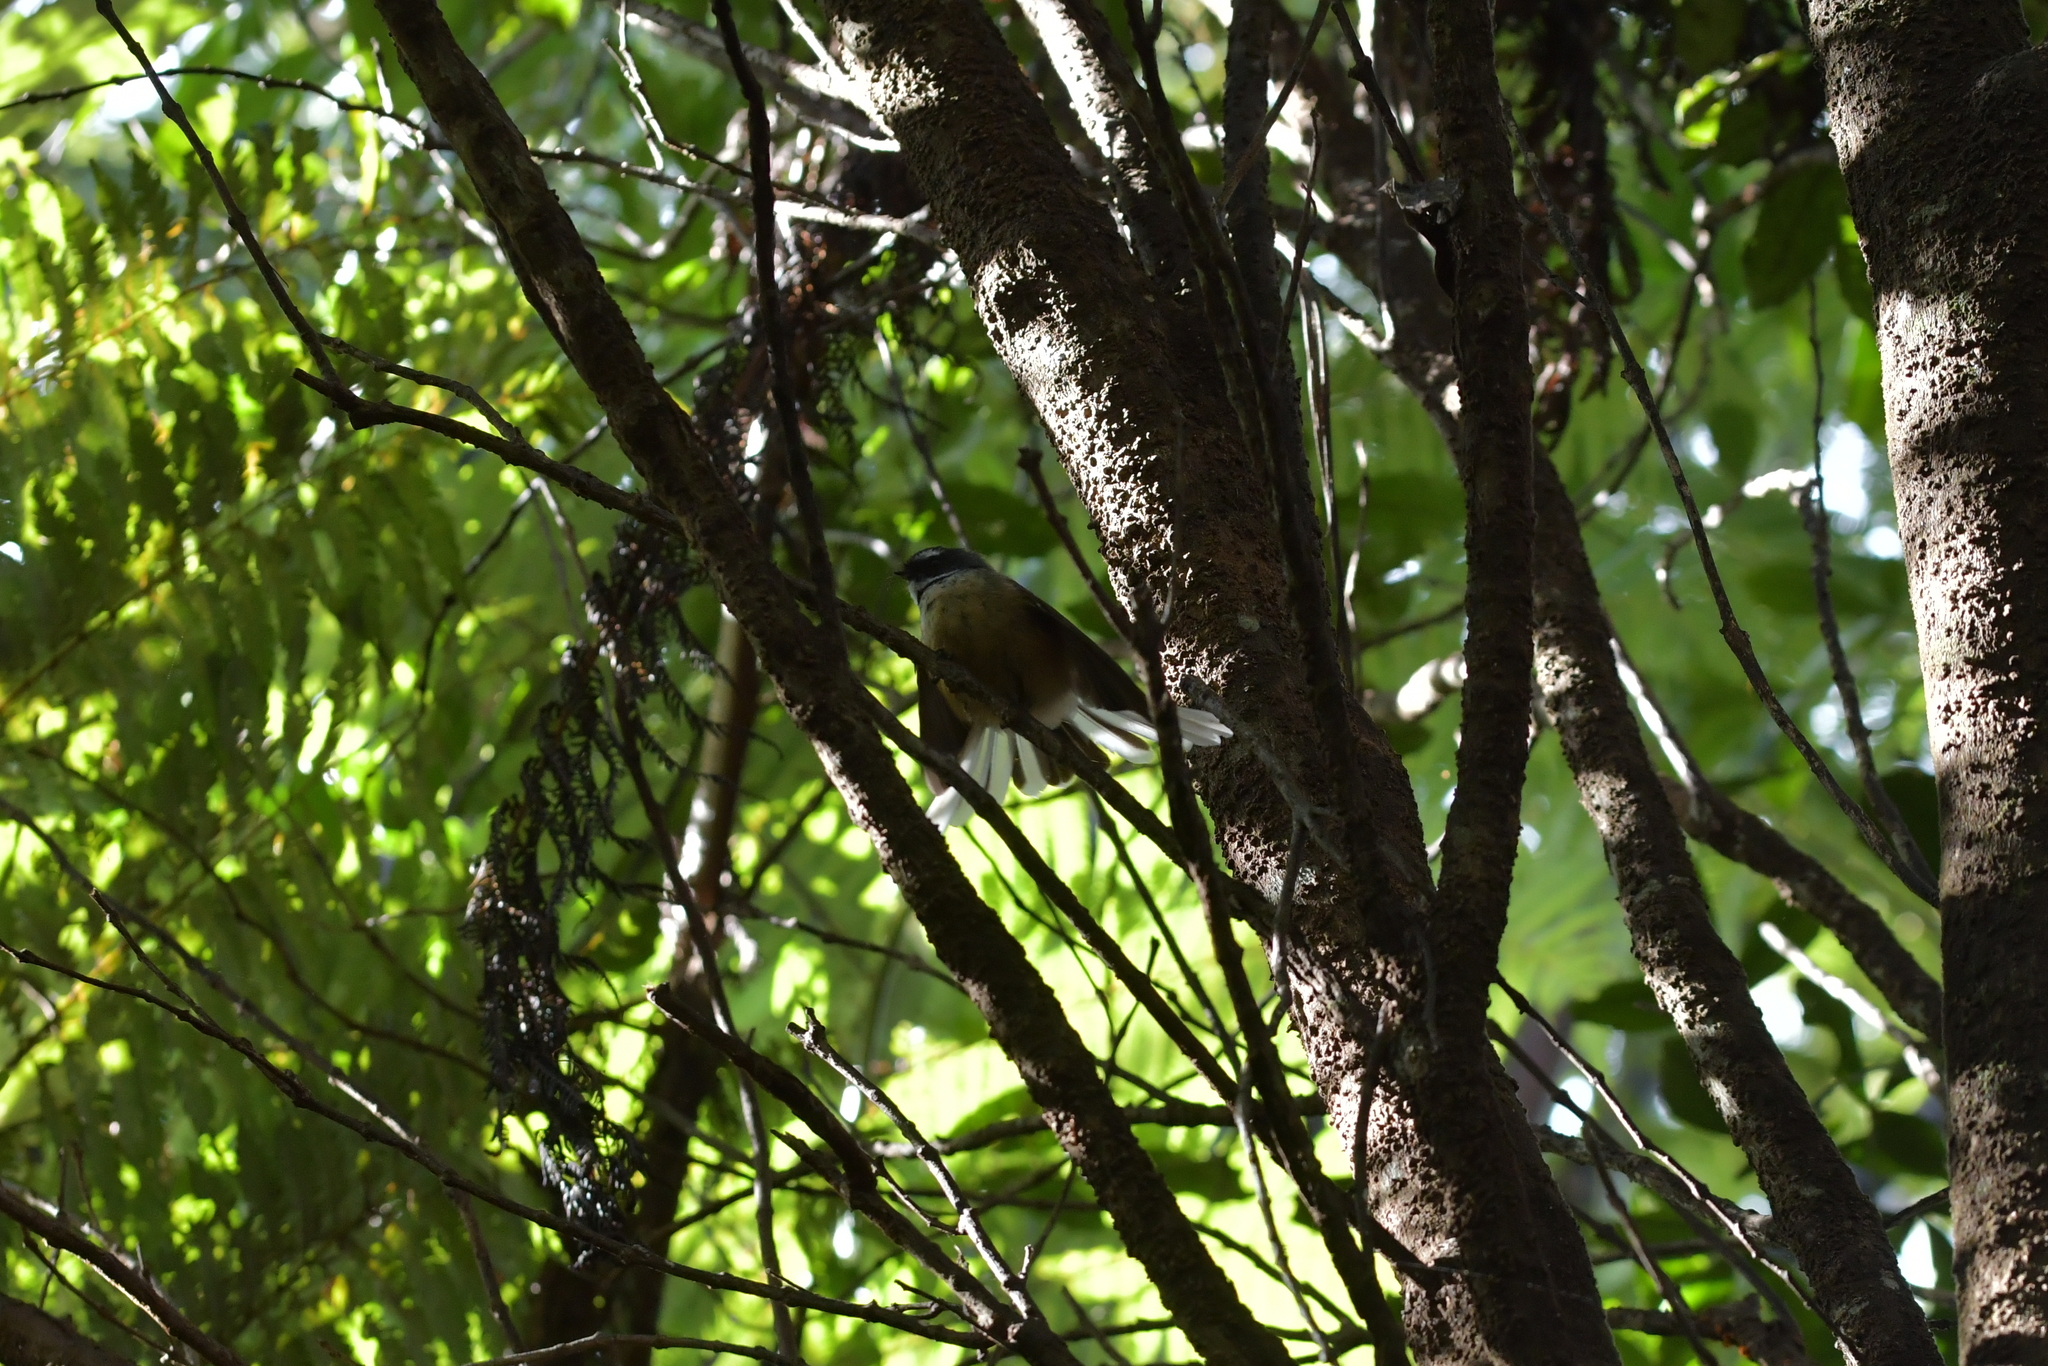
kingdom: Animalia
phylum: Chordata
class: Aves
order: Passeriformes
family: Rhipiduridae
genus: Rhipidura
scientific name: Rhipidura fuliginosa
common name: New zealand fantail
